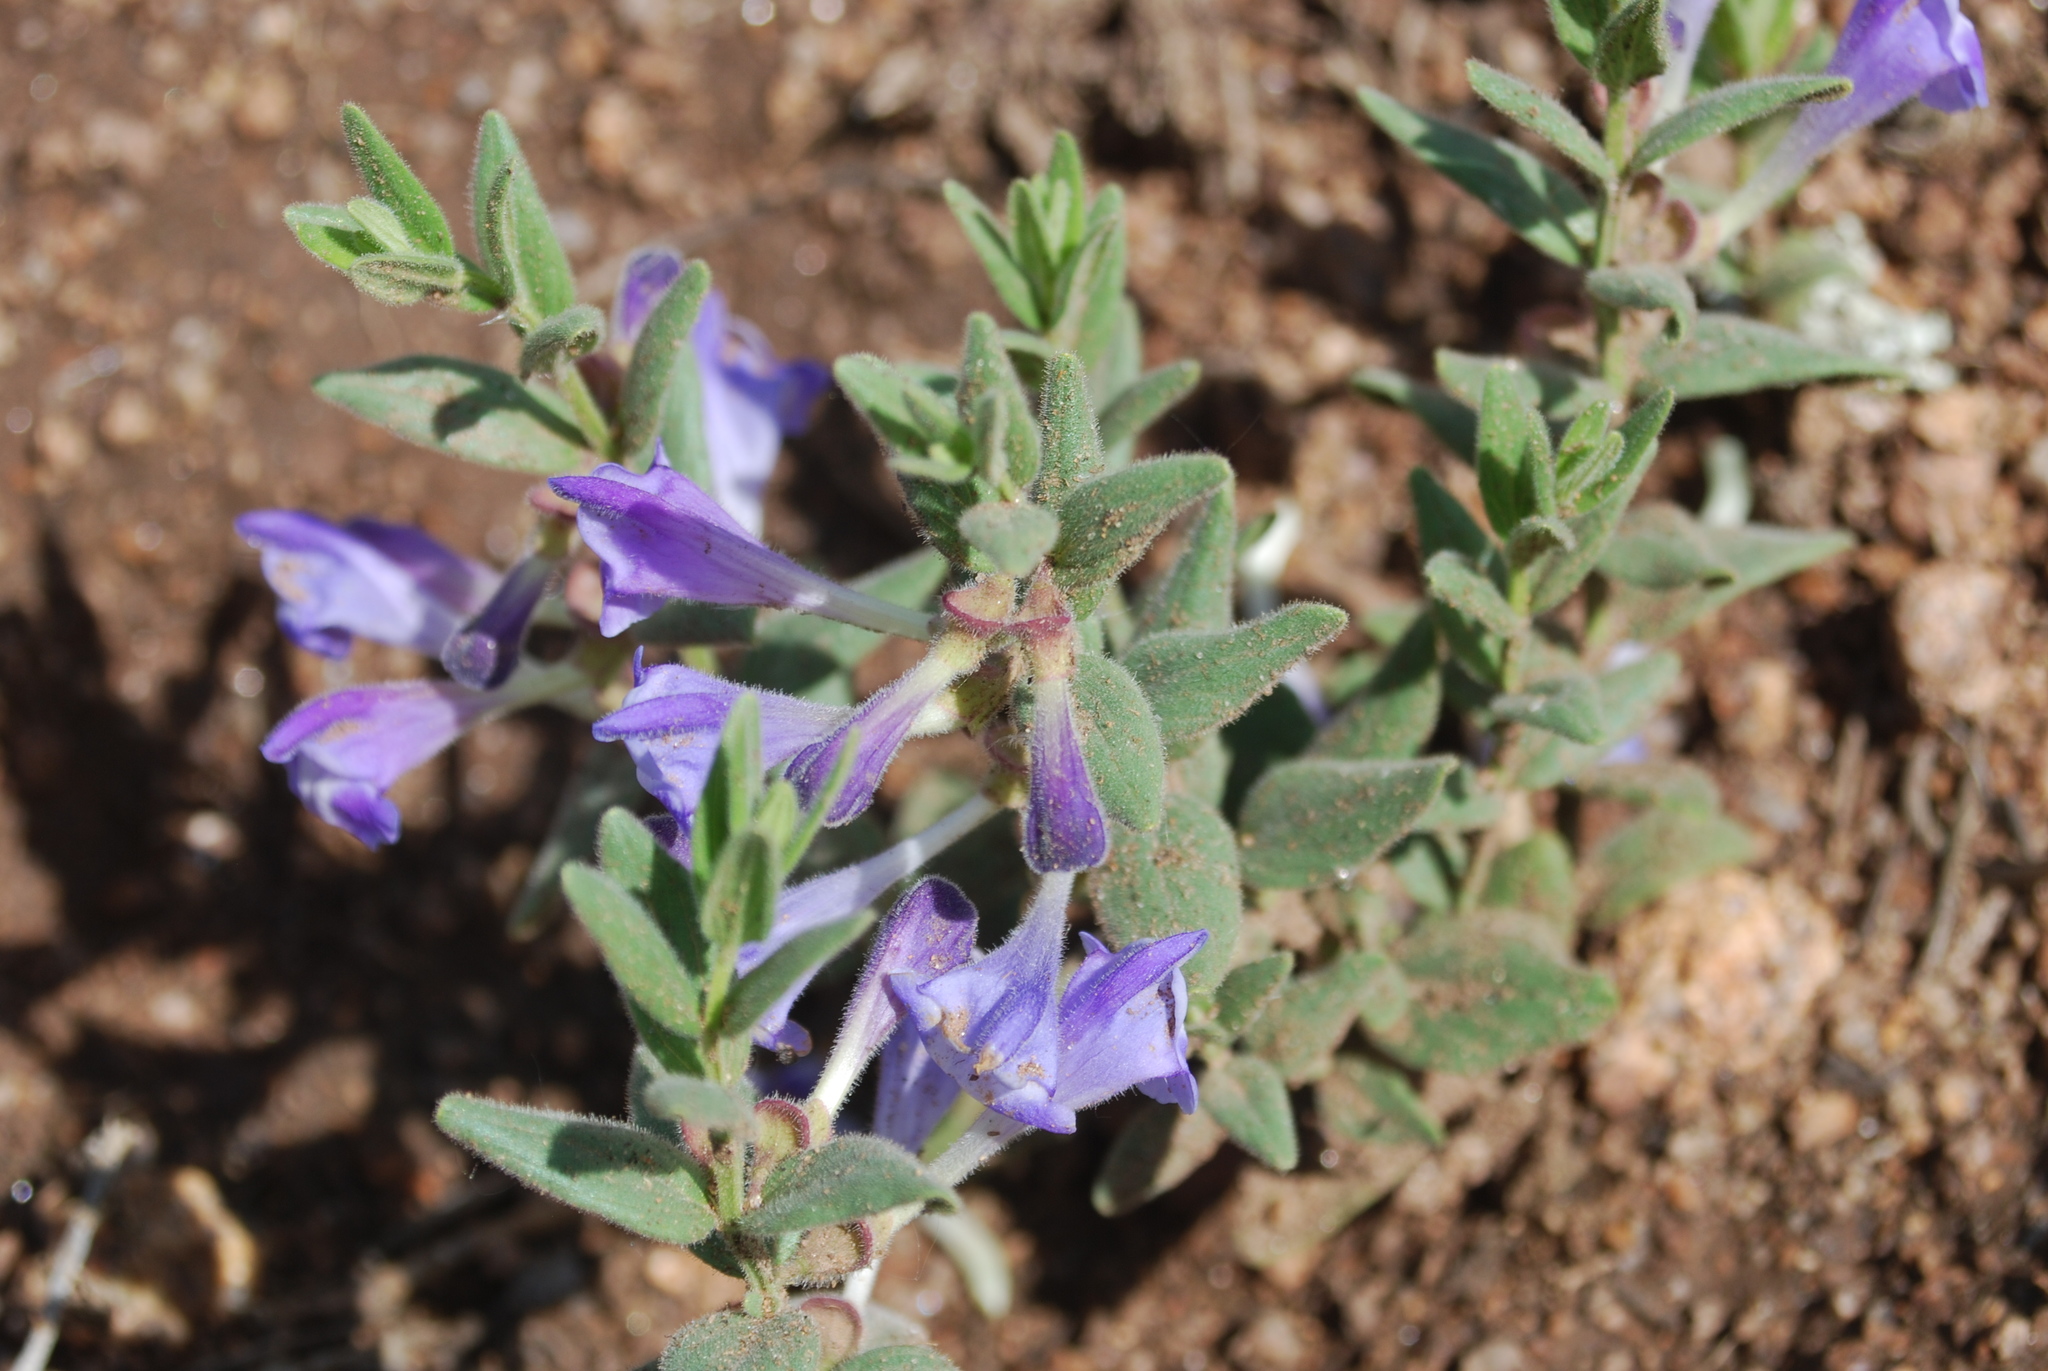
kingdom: Plantae
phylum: Tracheophyta
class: Magnoliopsida
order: Lamiales
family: Lamiaceae
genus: Scutellaria
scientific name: Scutellaria brittonii
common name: Britton's skullcap
